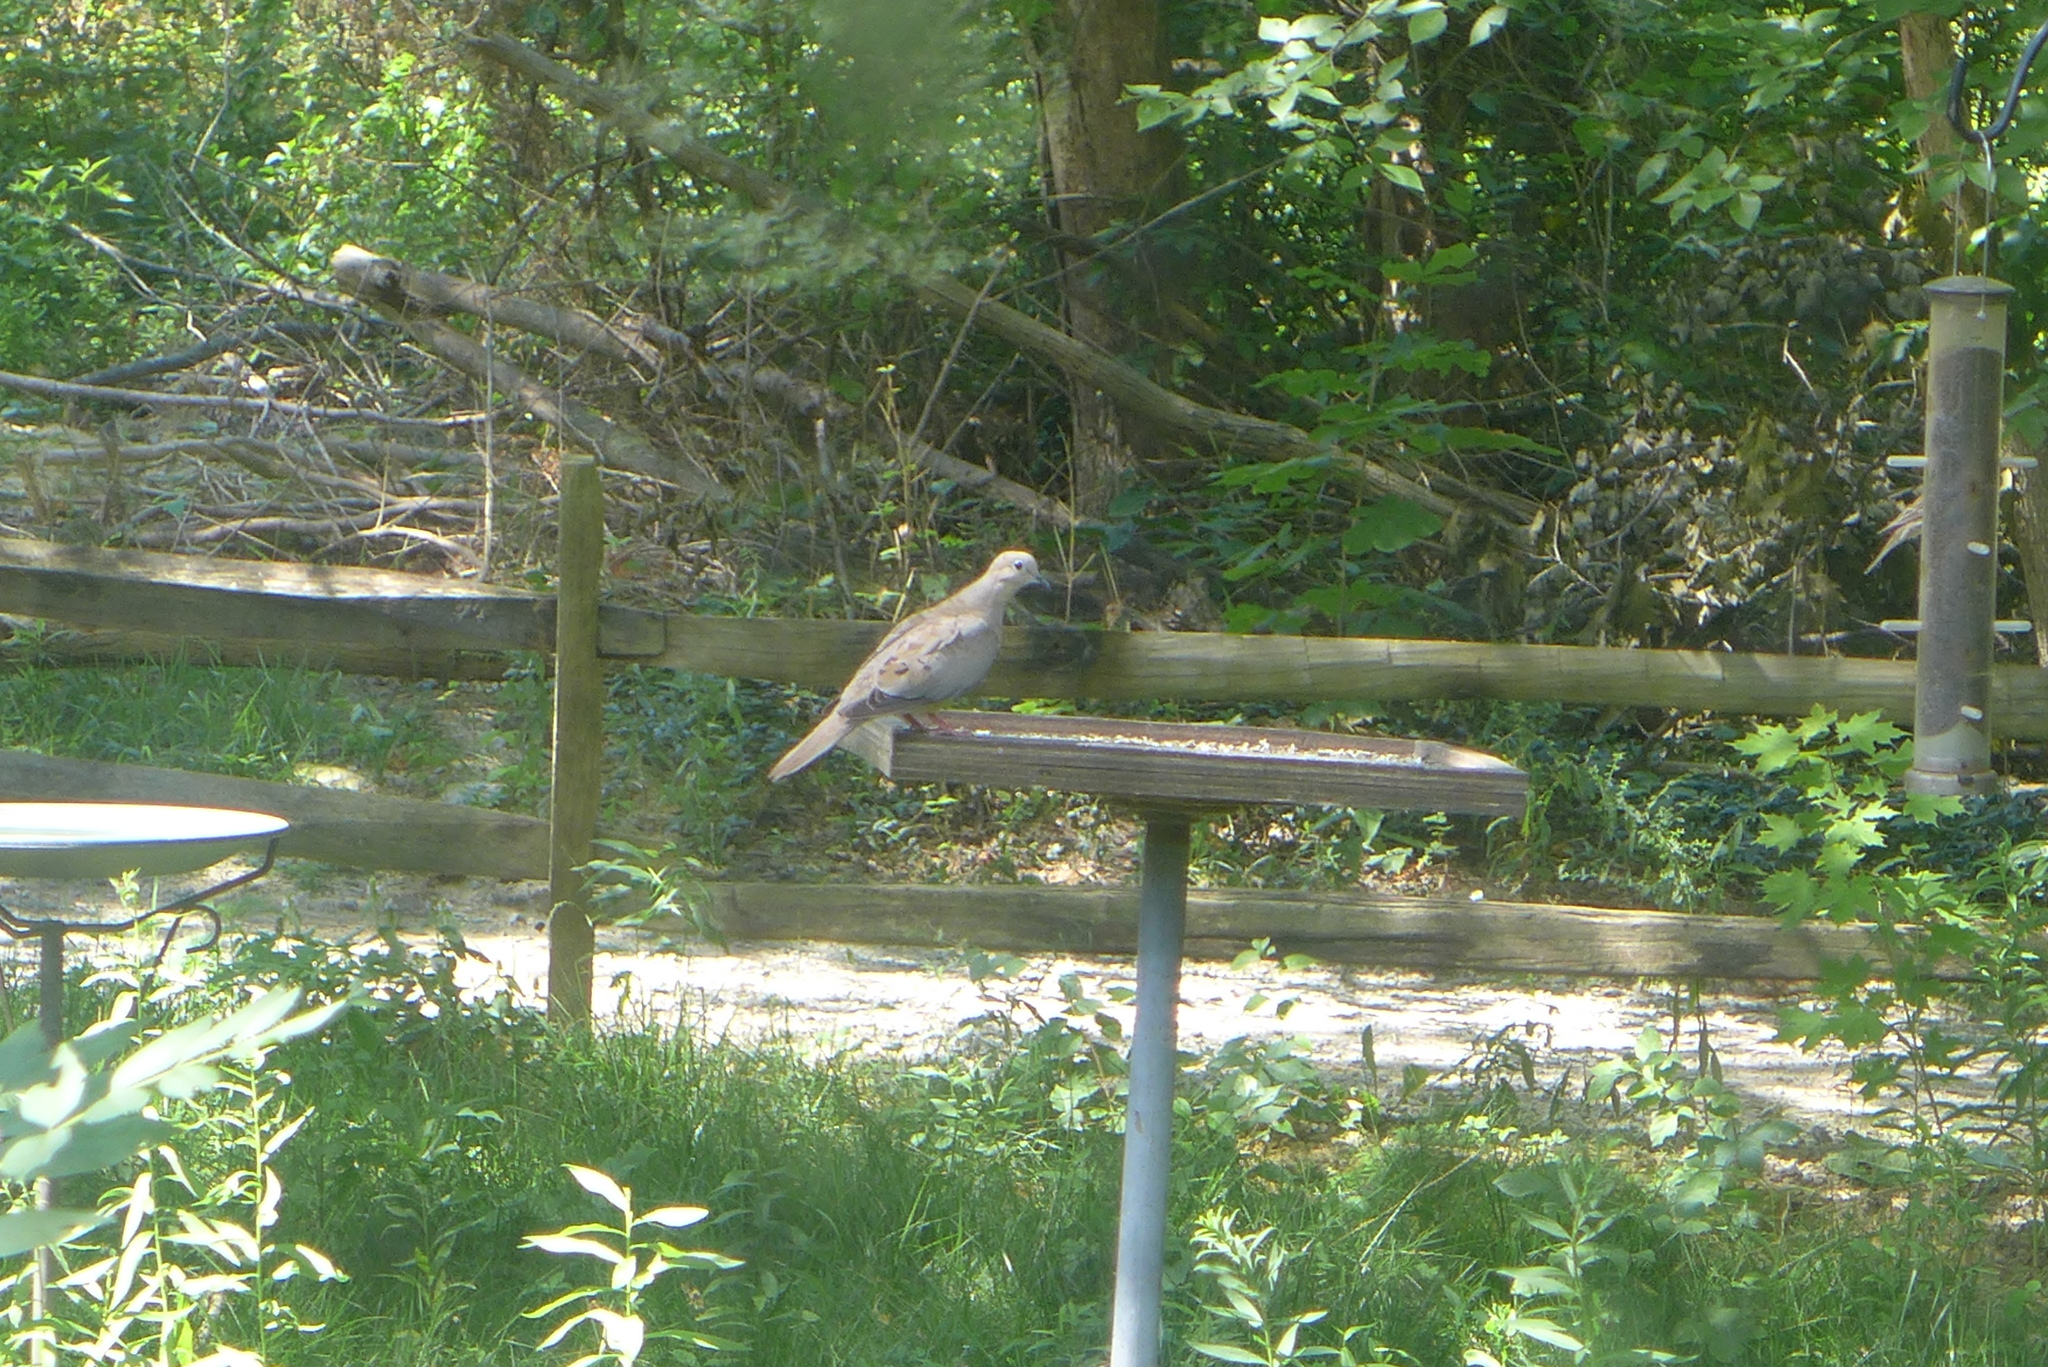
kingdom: Animalia
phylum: Chordata
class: Aves
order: Columbiformes
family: Columbidae
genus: Zenaida
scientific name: Zenaida macroura
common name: Mourning dove
